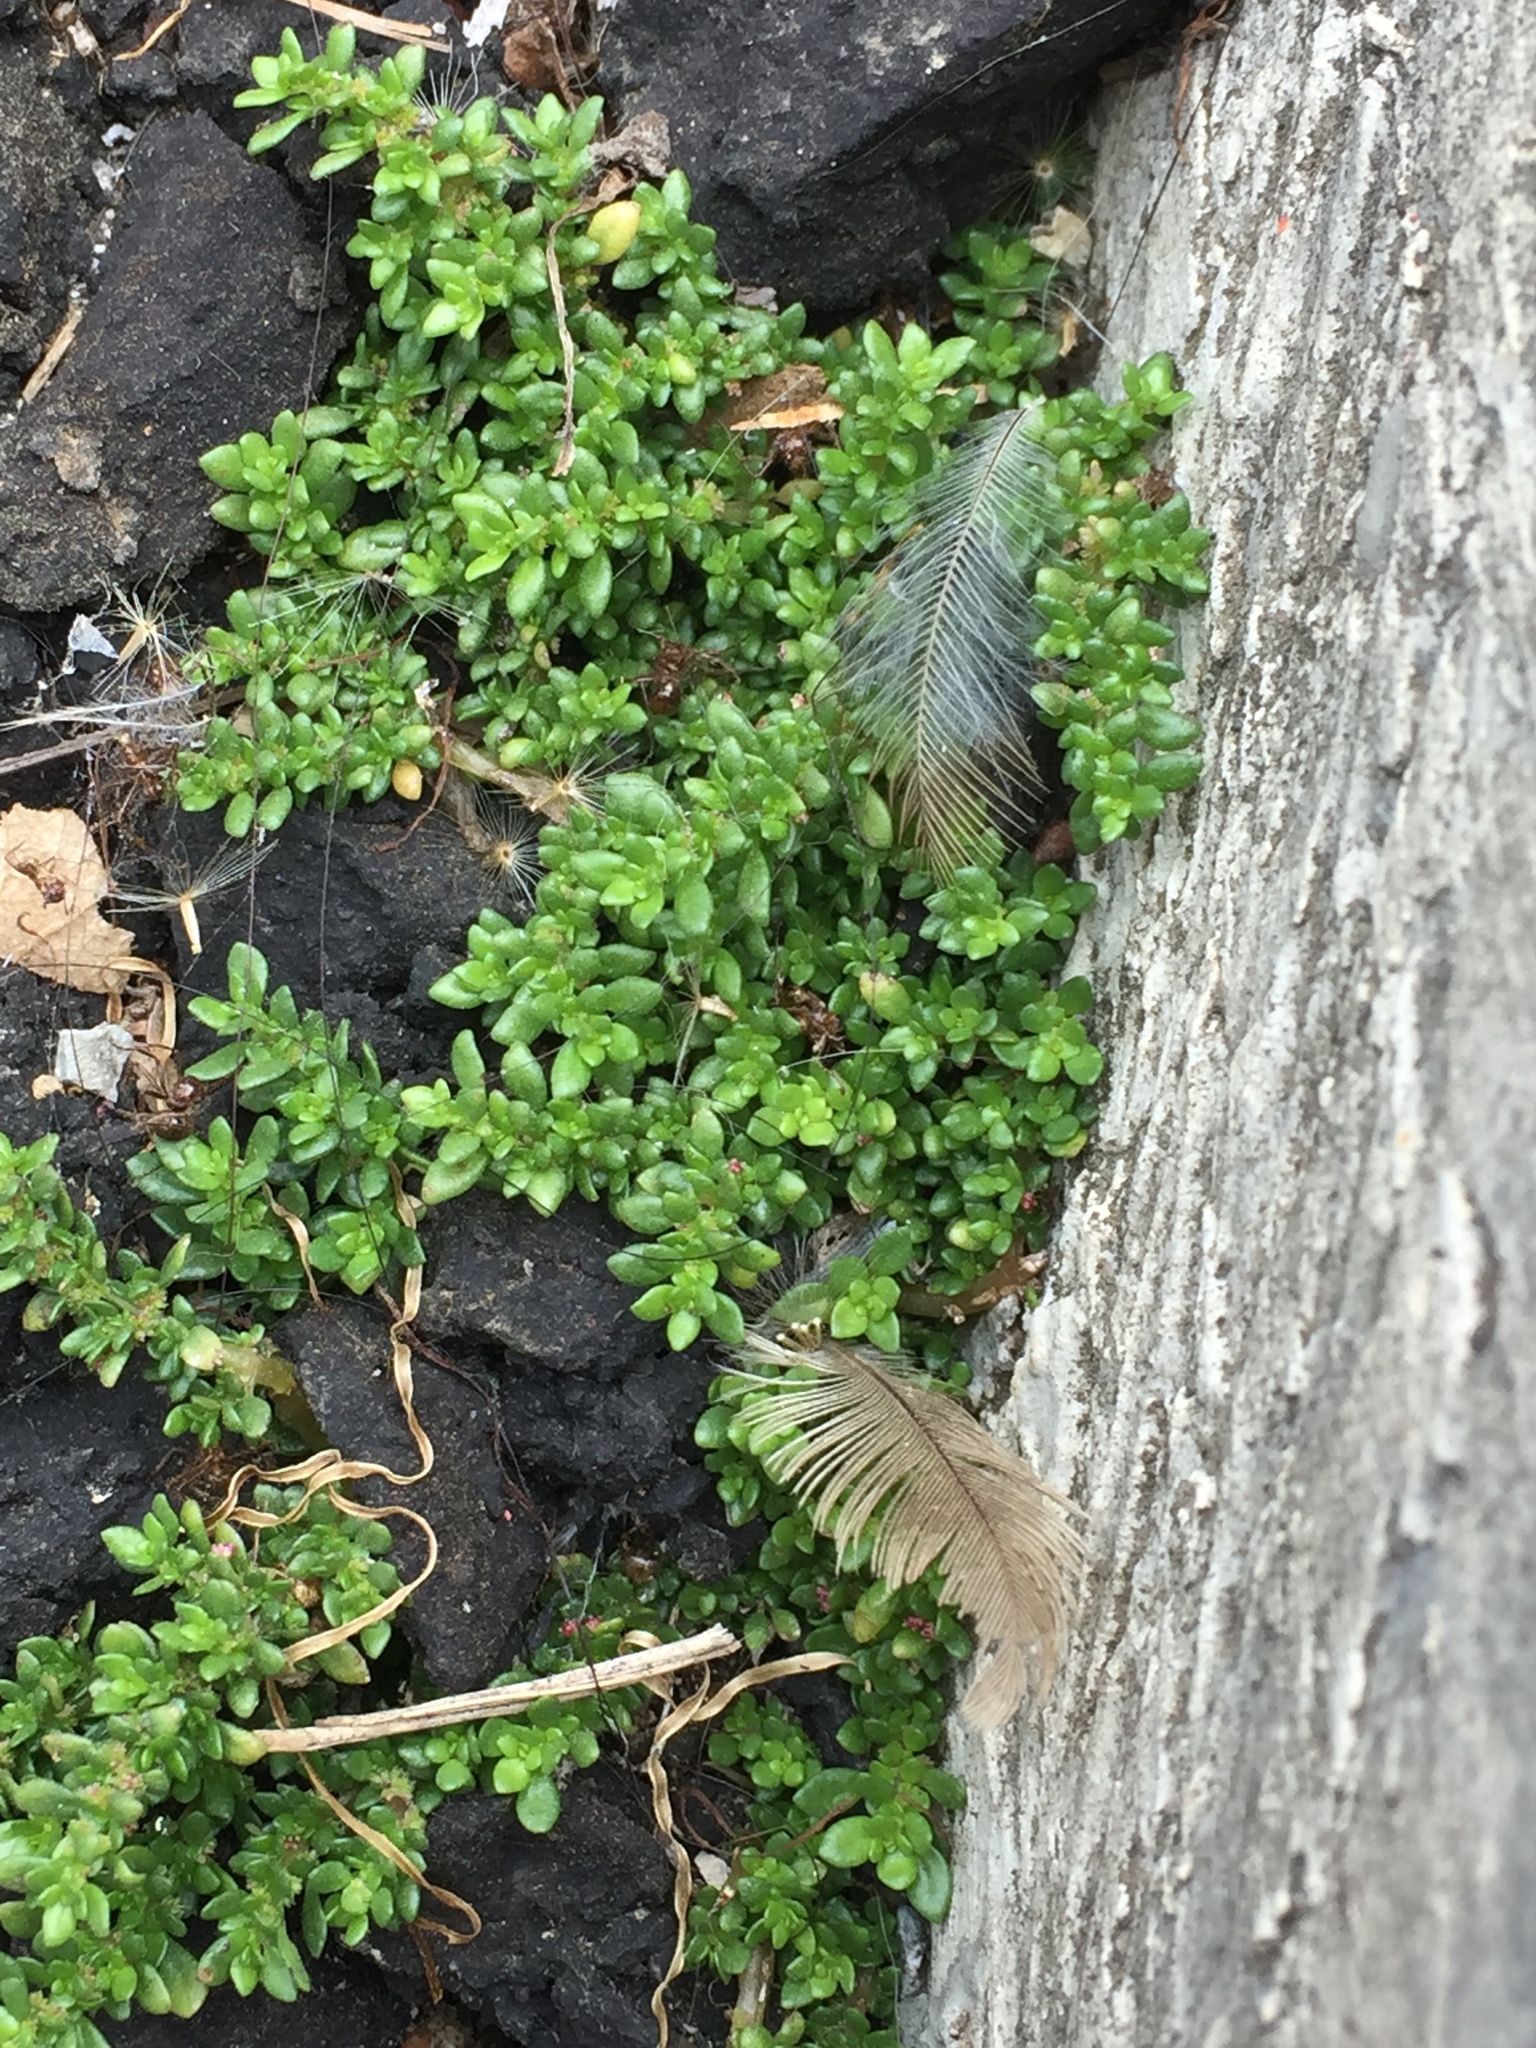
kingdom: Plantae
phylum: Tracheophyta
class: Magnoliopsida
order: Rosales
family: Urticaceae
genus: Pilea
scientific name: Pilea microphylla
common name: Artillery-plant
